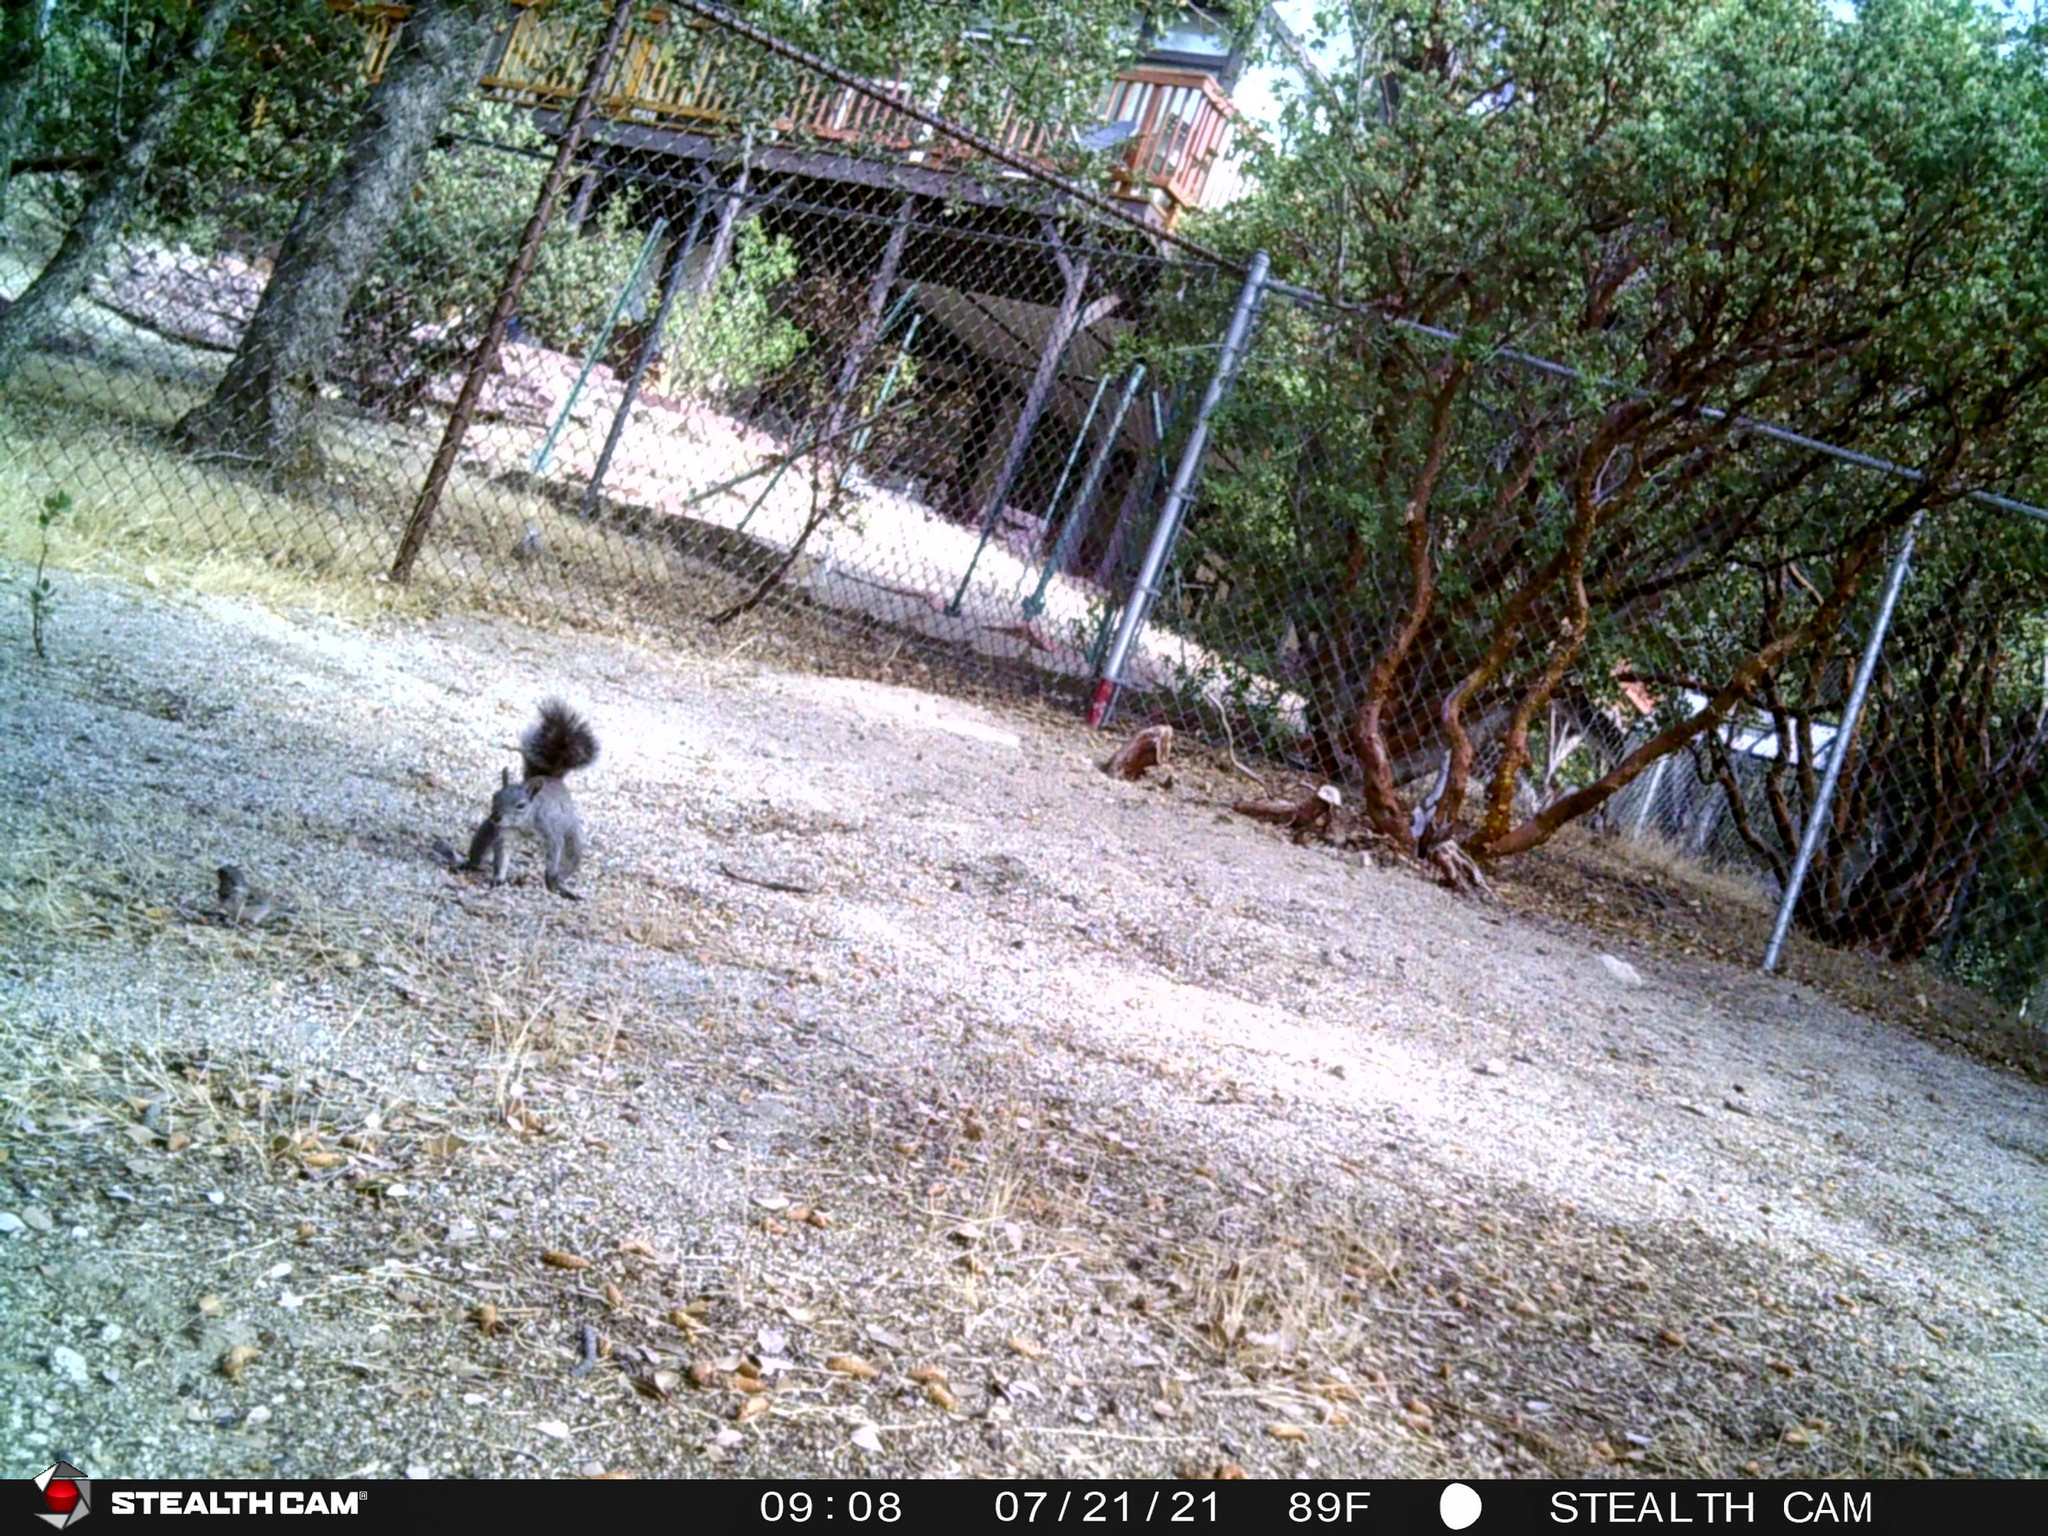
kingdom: Animalia
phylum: Chordata
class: Mammalia
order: Rodentia
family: Sciuridae
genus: Sciurus
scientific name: Sciurus griseus
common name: Western gray squirrel
